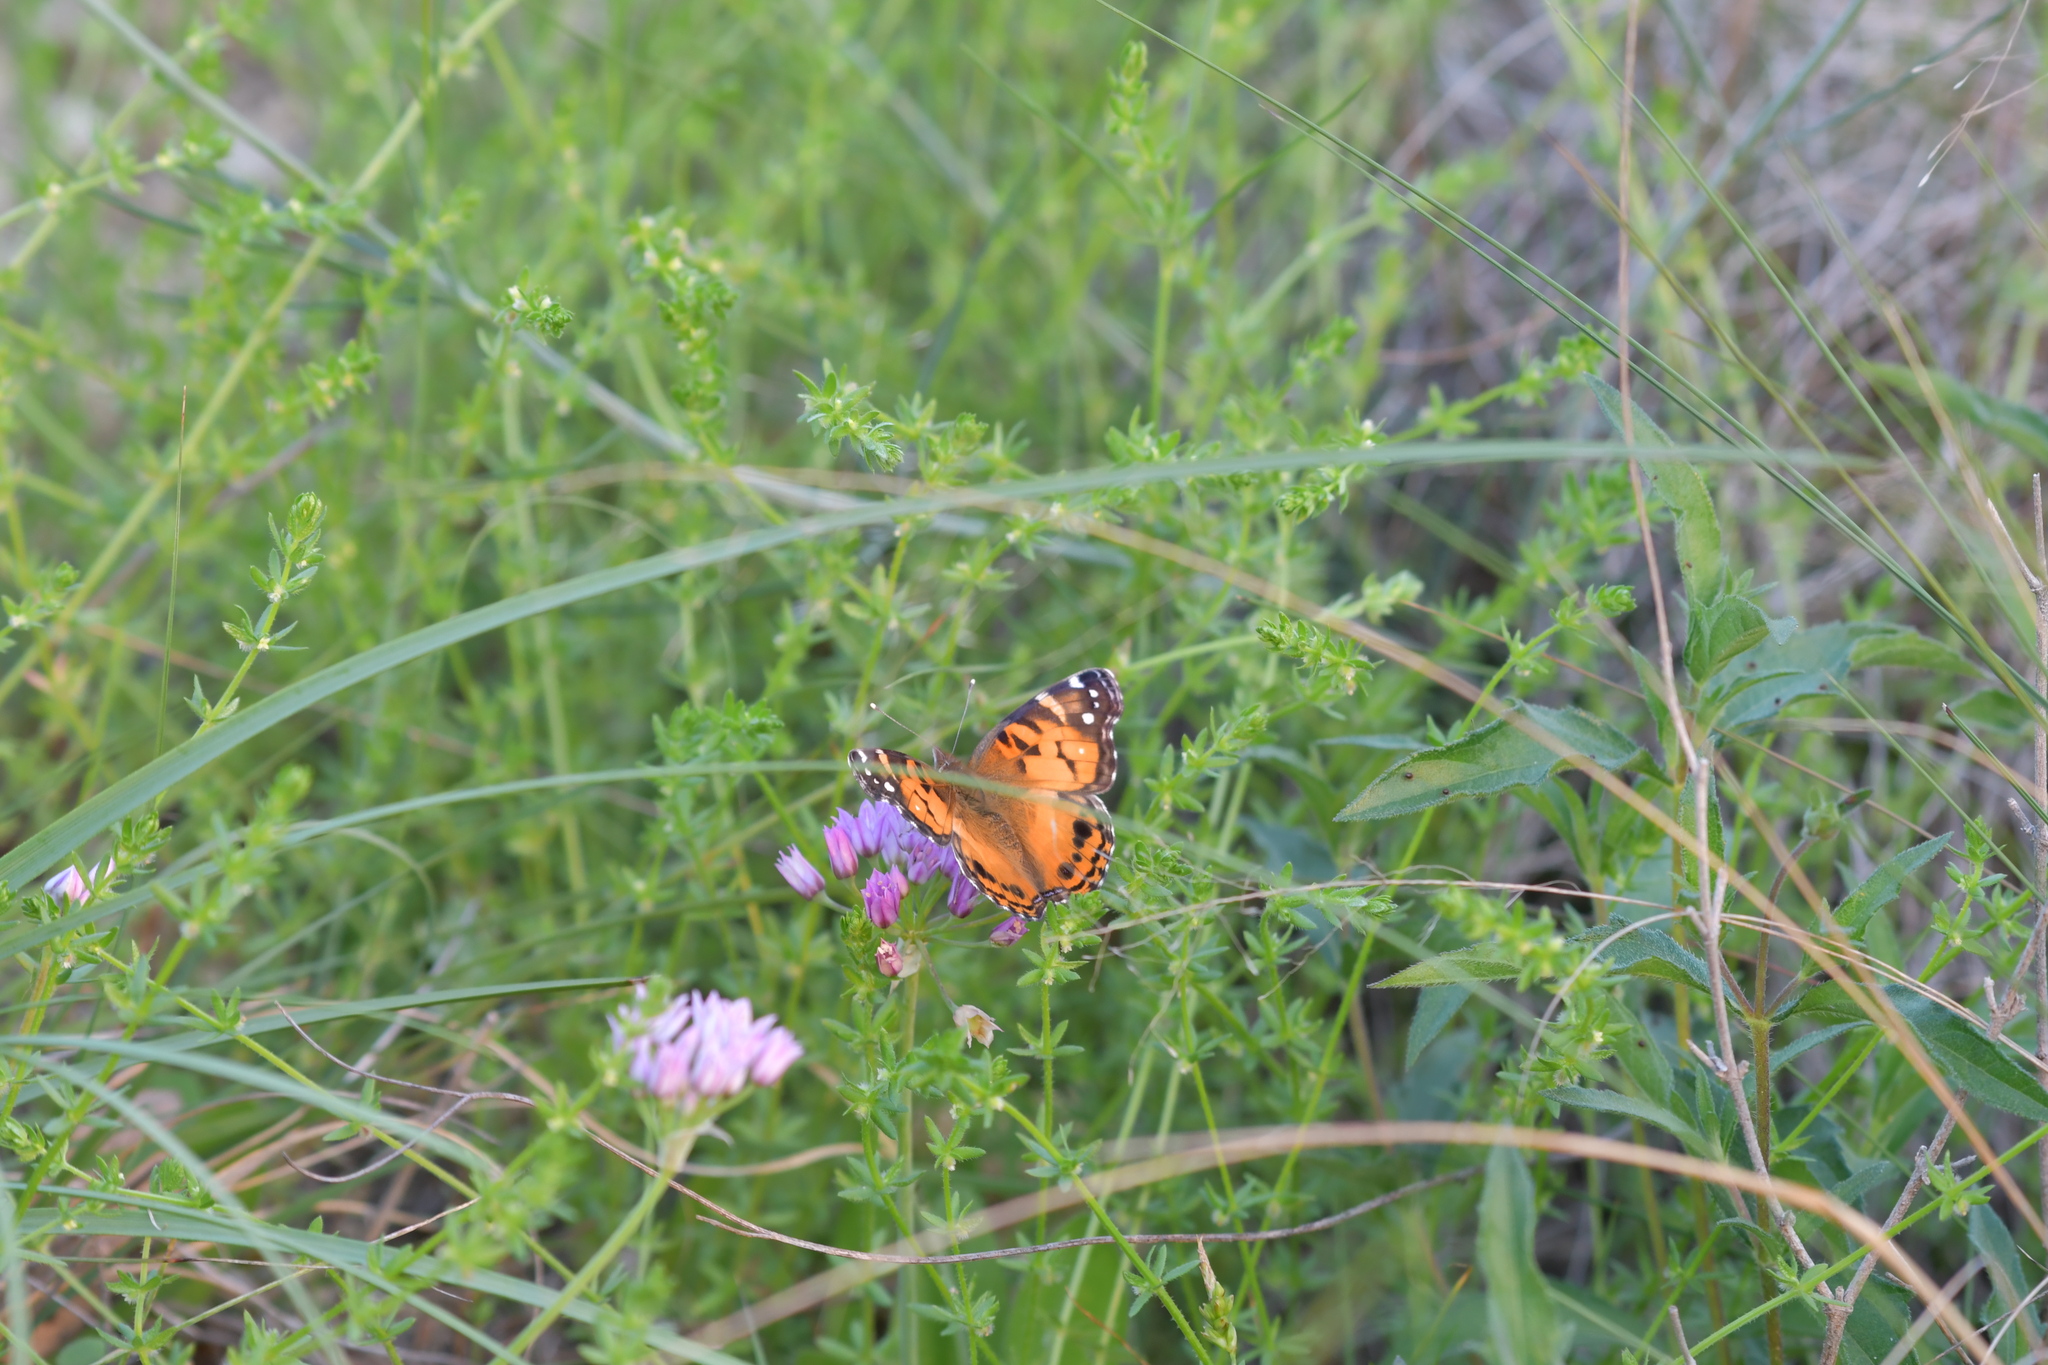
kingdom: Animalia
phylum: Arthropoda
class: Insecta
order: Lepidoptera
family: Nymphalidae
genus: Vanessa
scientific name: Vanessa virginiensis
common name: American lady
